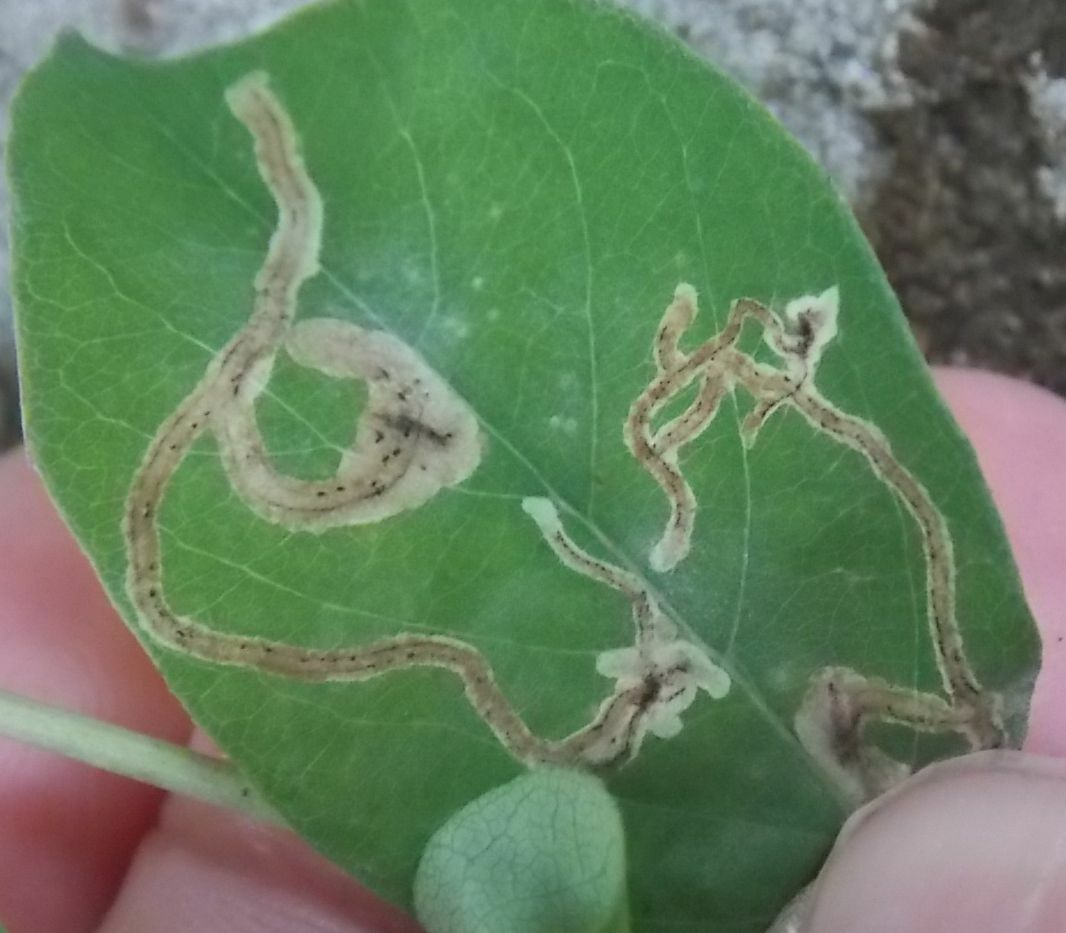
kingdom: Animalia
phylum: Arthropoda
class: Insecta
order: Diptera
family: Agromyzidae
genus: Phytomyza
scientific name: Phytomyza lonicerae
